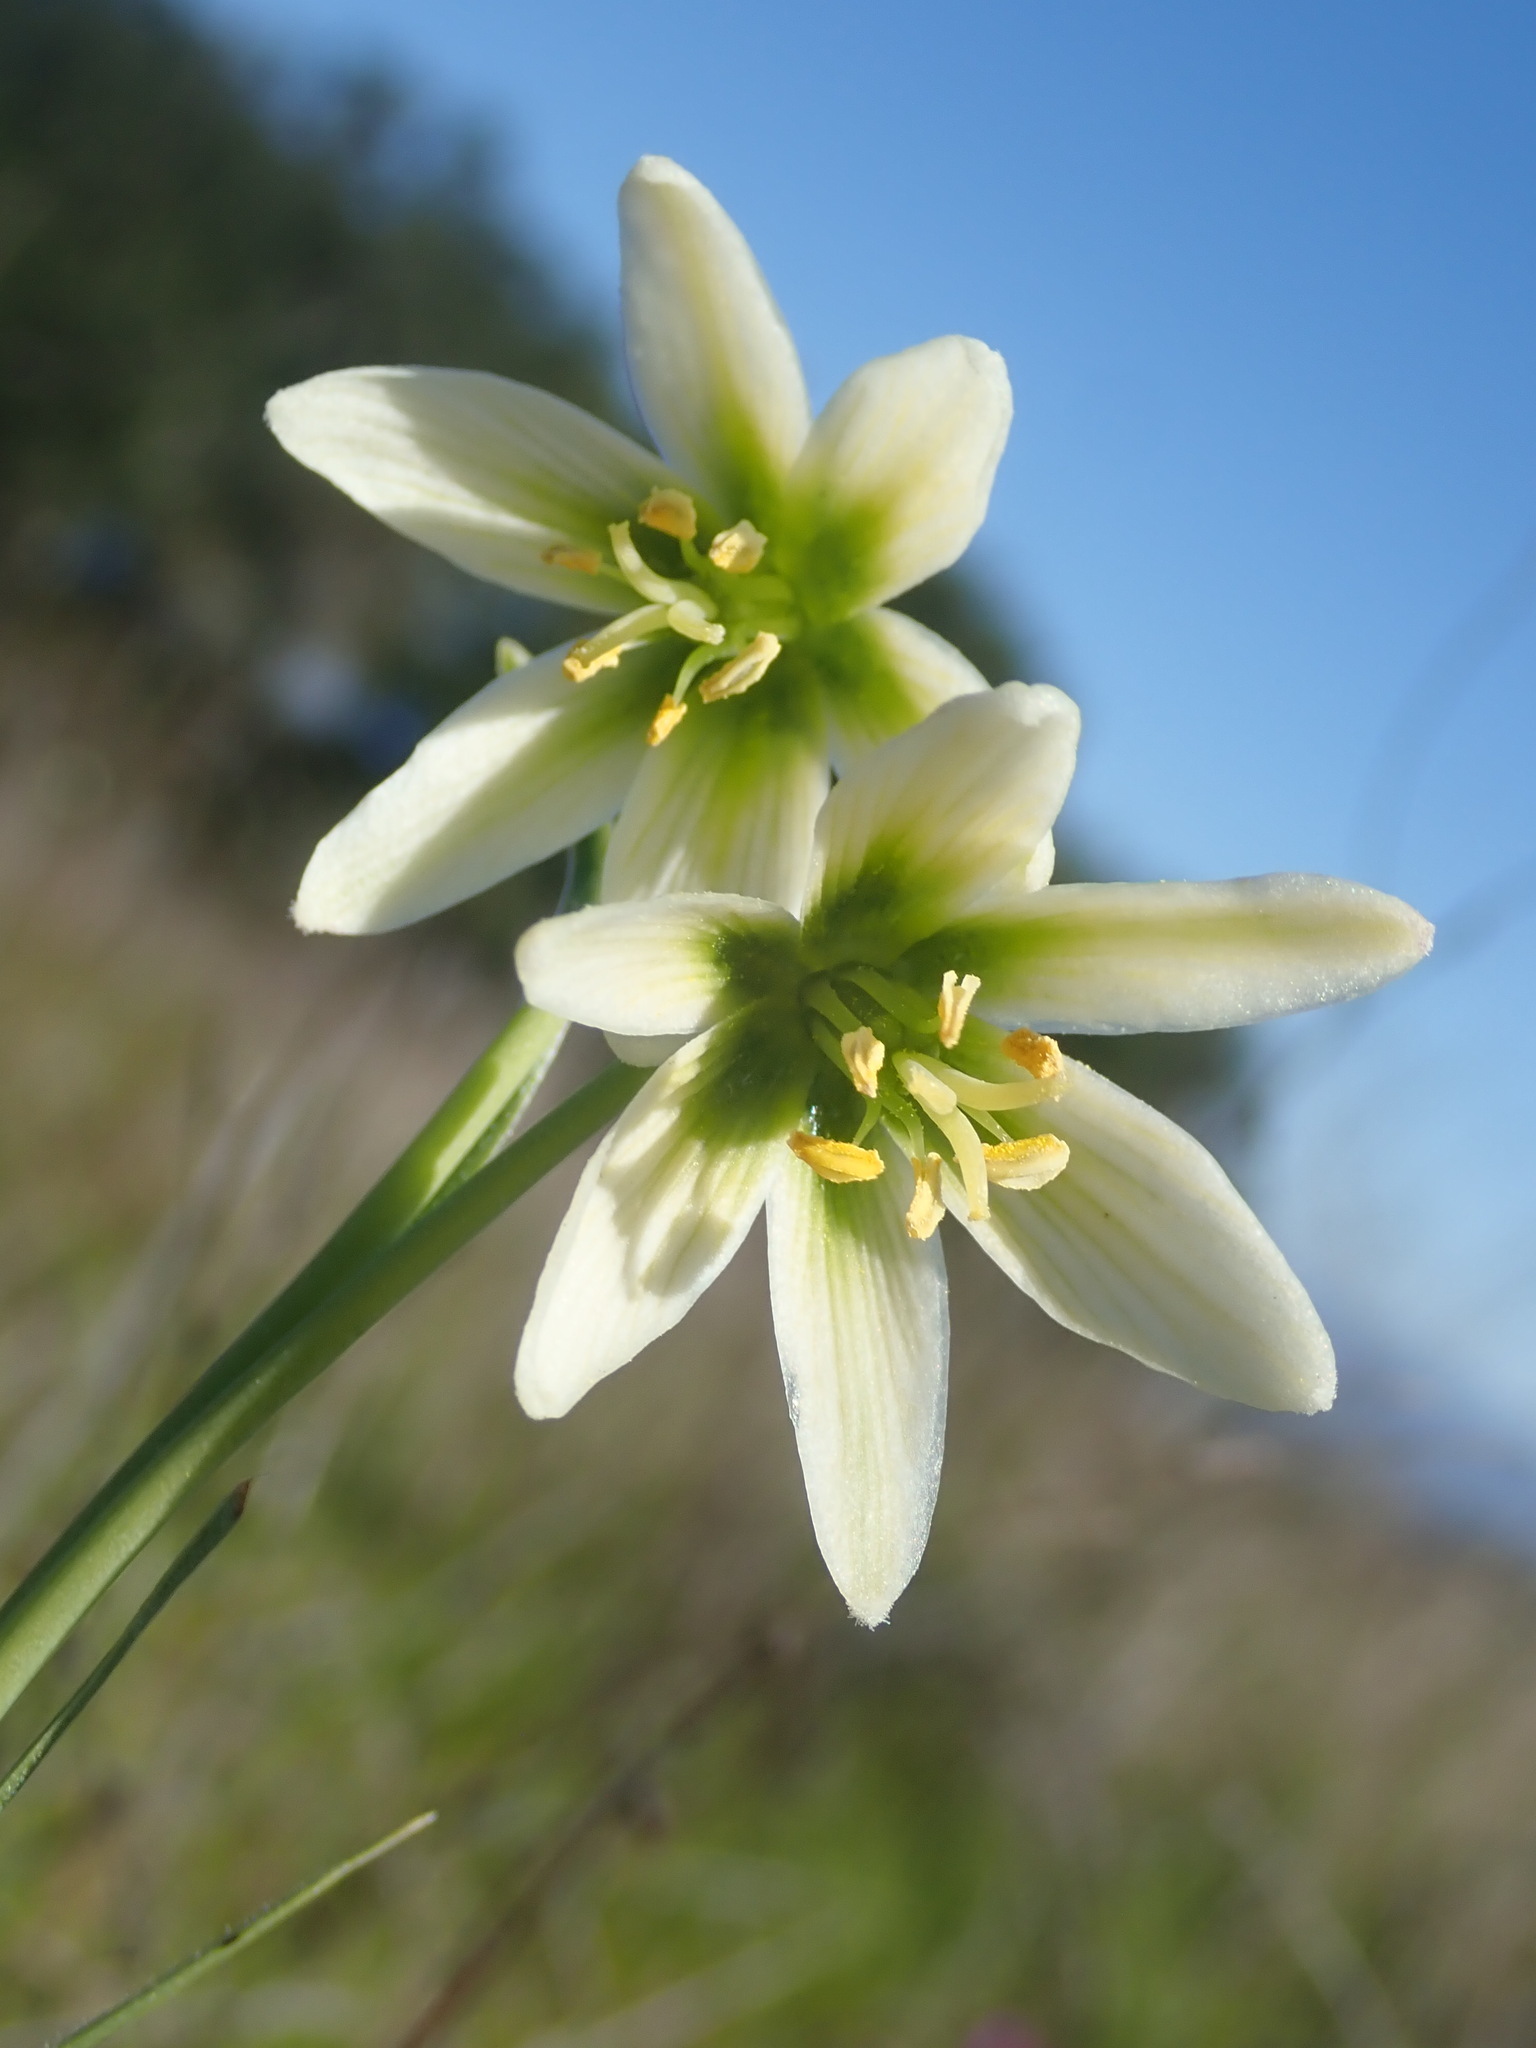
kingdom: Plantae
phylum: Tracheophyta
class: Liliopsida
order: Liliales
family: Liliaceae
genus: Fritillaria
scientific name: Fritillaria liliacea
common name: Fragrant fritillary
